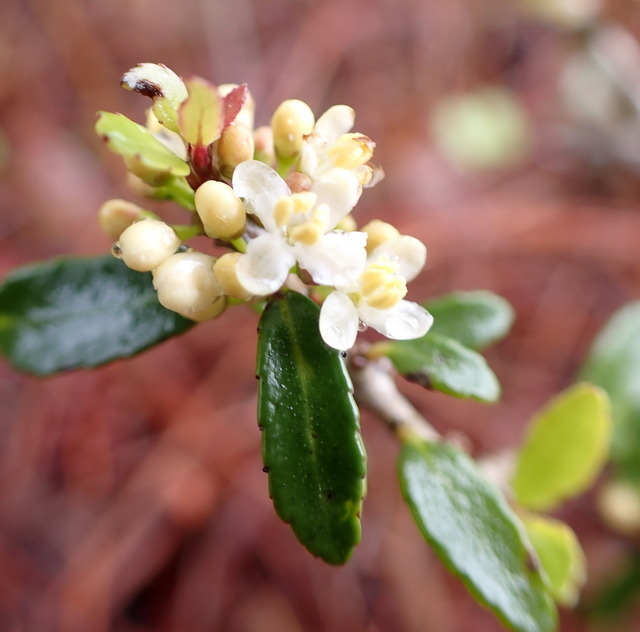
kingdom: Plantae
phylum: Tracheophyta
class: Magnoliopsida
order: Aquifoliales
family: Aquifoliaceae
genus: Ilex
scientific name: Ilex vomitoria
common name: Yaupon holly
